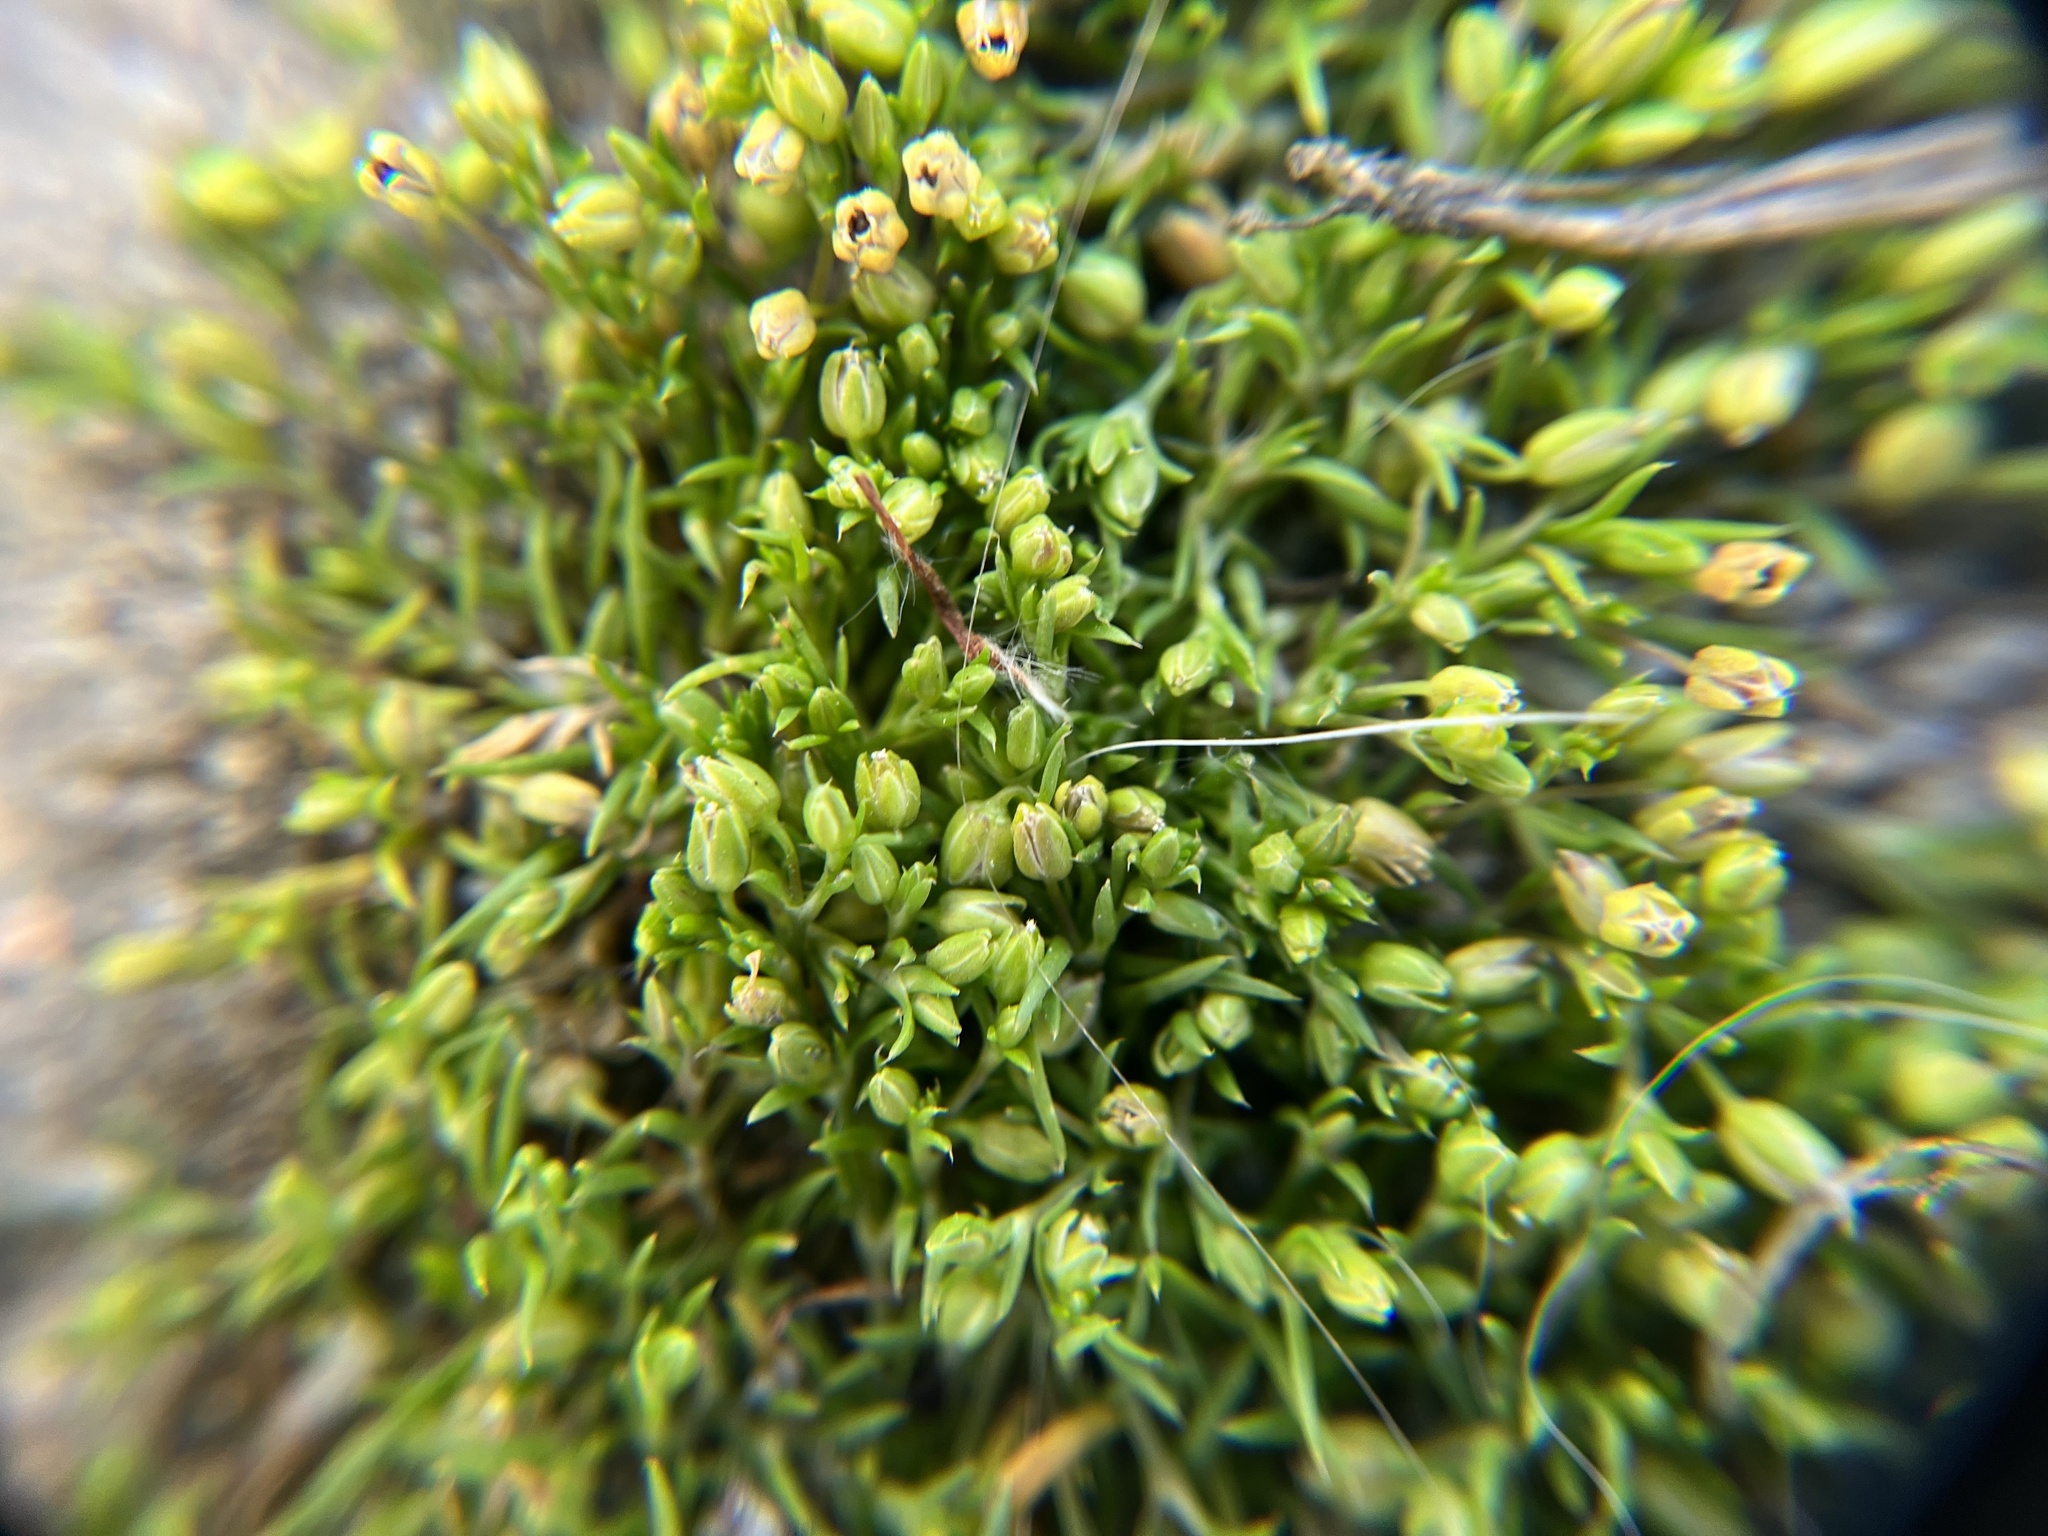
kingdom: Plantae
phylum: Tracheophyta
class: Magnoliopsida
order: Caryophyllales
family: Caryophyllaceae
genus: Sagina
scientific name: Sagina apetala
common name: Annual pearlwort
